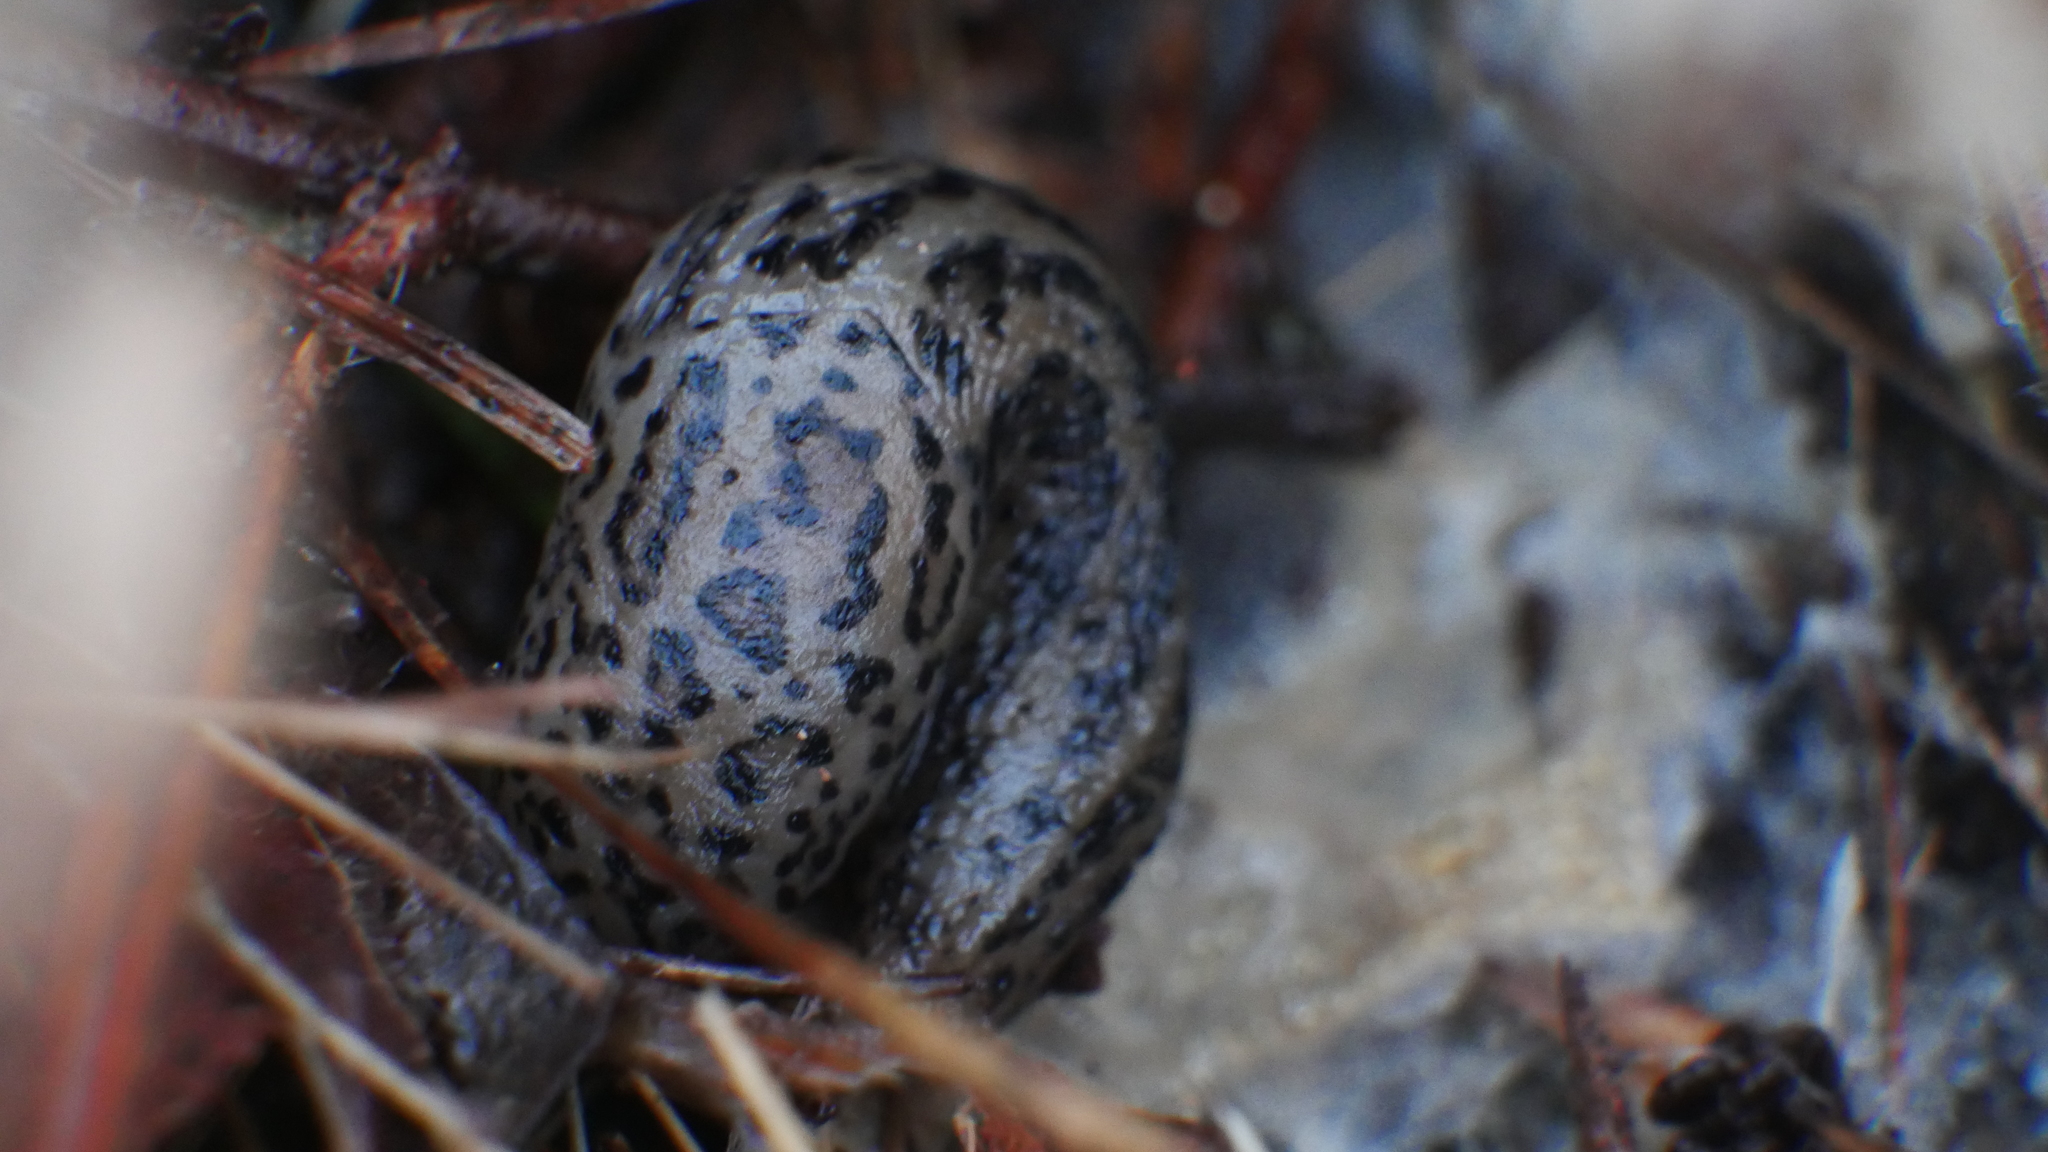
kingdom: Animalia
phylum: Mollusca
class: Gastropoda
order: Stylommatophora
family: Limacidae
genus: Limax
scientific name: Limax maximus
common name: Great grey slug
